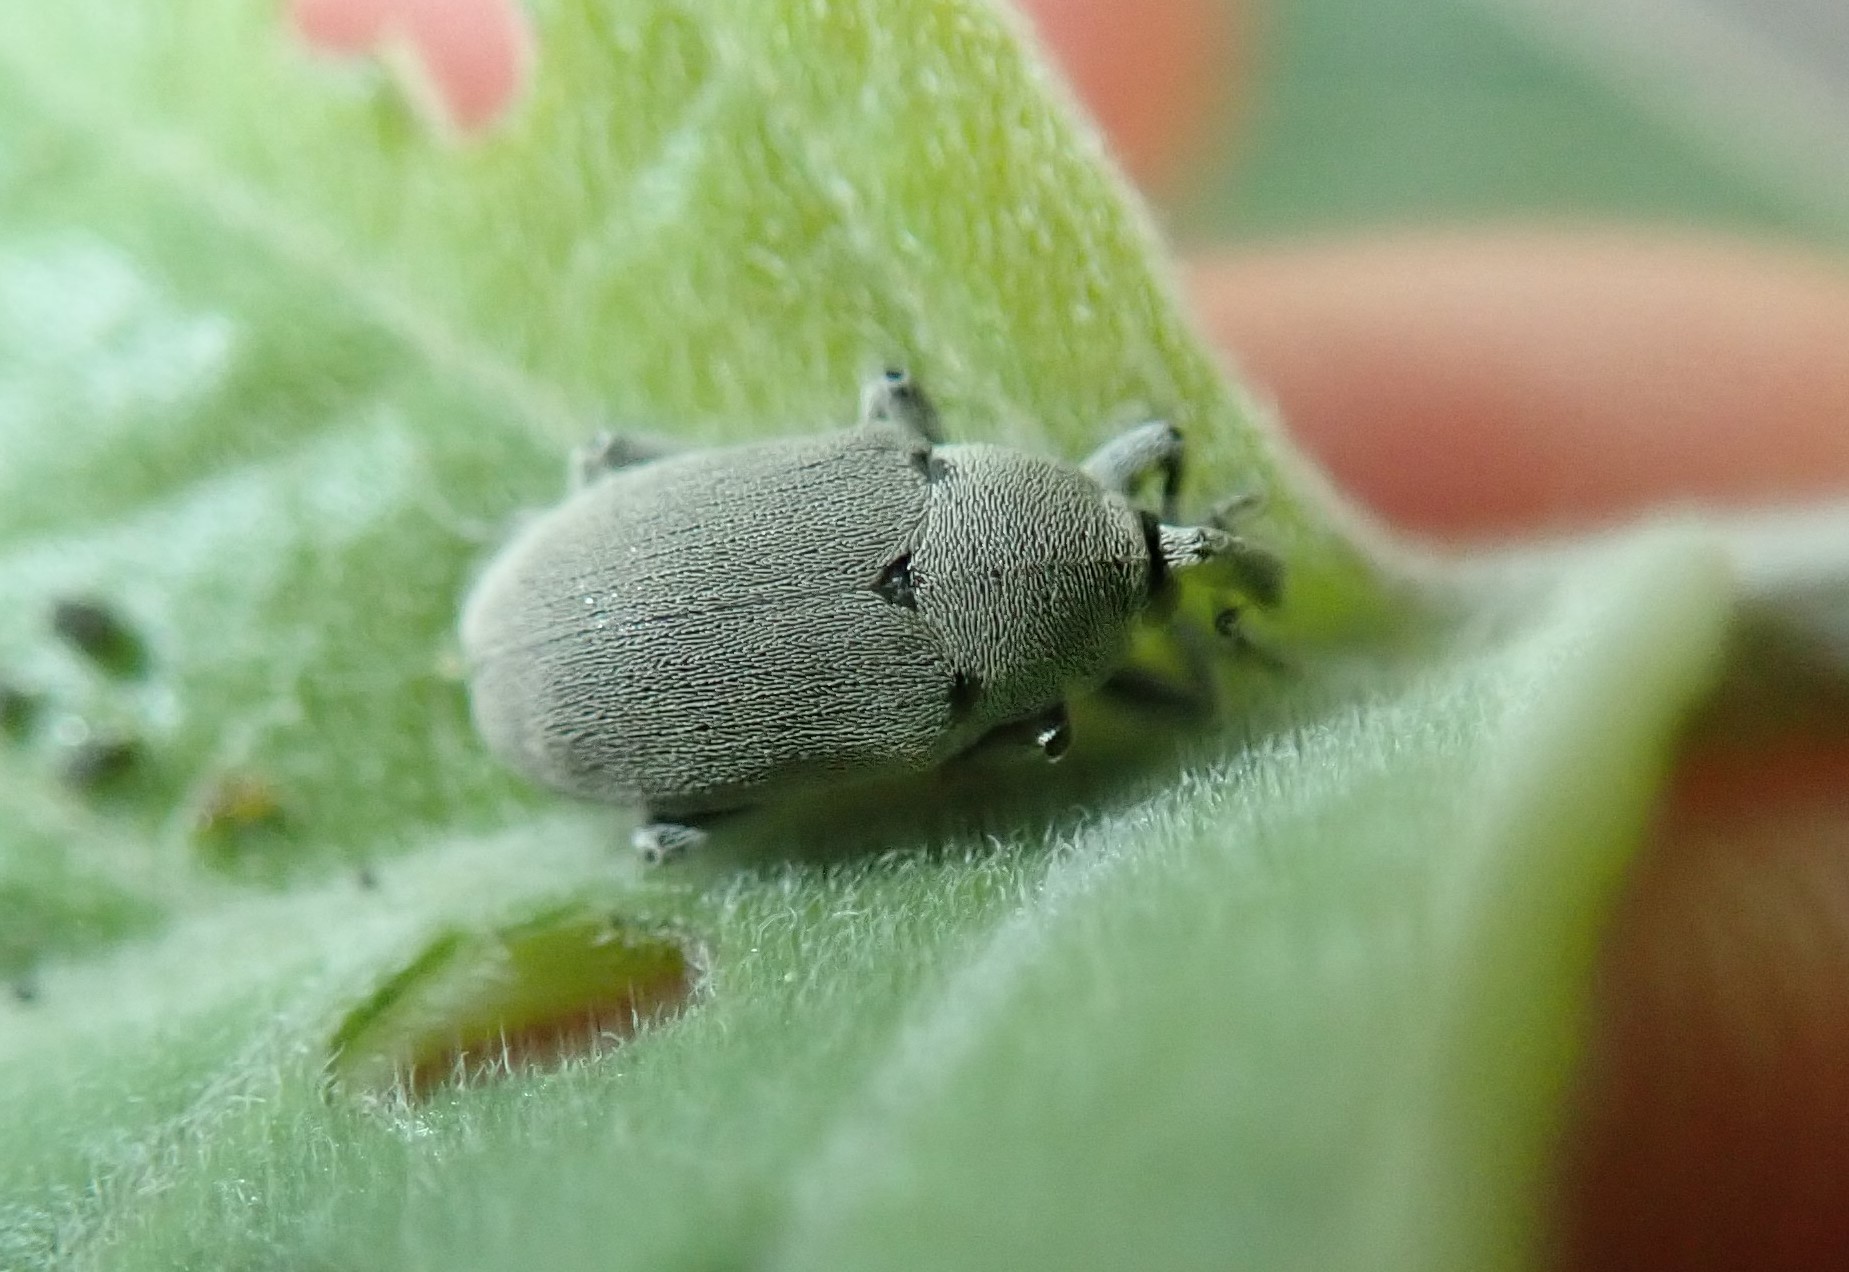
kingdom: Animalia
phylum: Arthropoda
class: Insecta
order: Coleoptera
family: Curculionidae
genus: Trichobaris
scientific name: Trichobaris compacta
